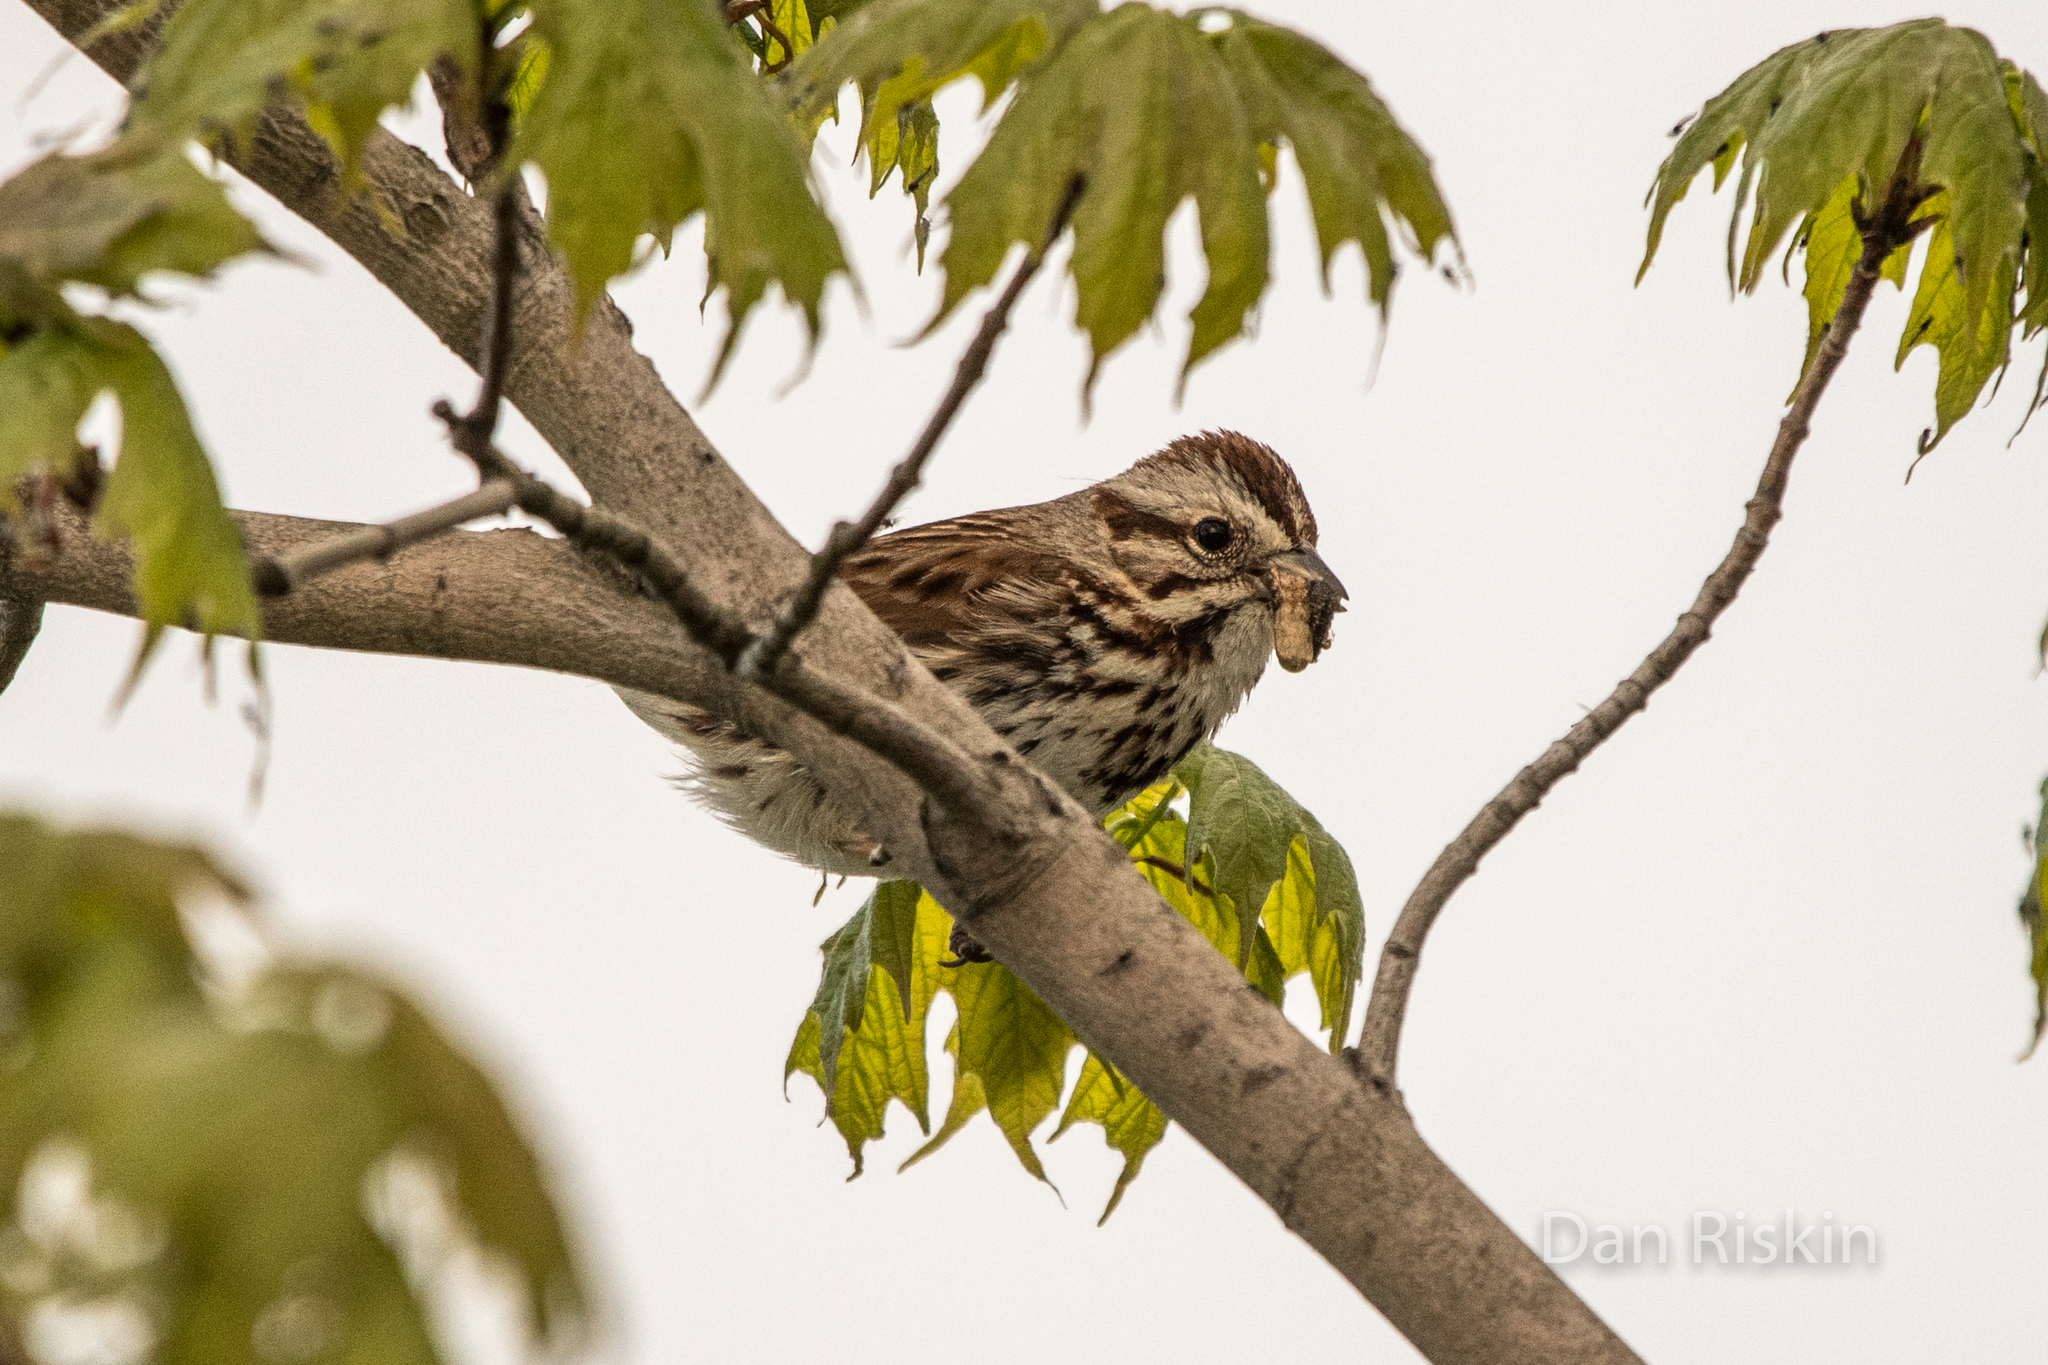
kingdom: Animalia
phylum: Chordata
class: Aves
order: Passeriformes
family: Passerellidae
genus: Melospiza
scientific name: Melospiza melodia
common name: Song sparrow
